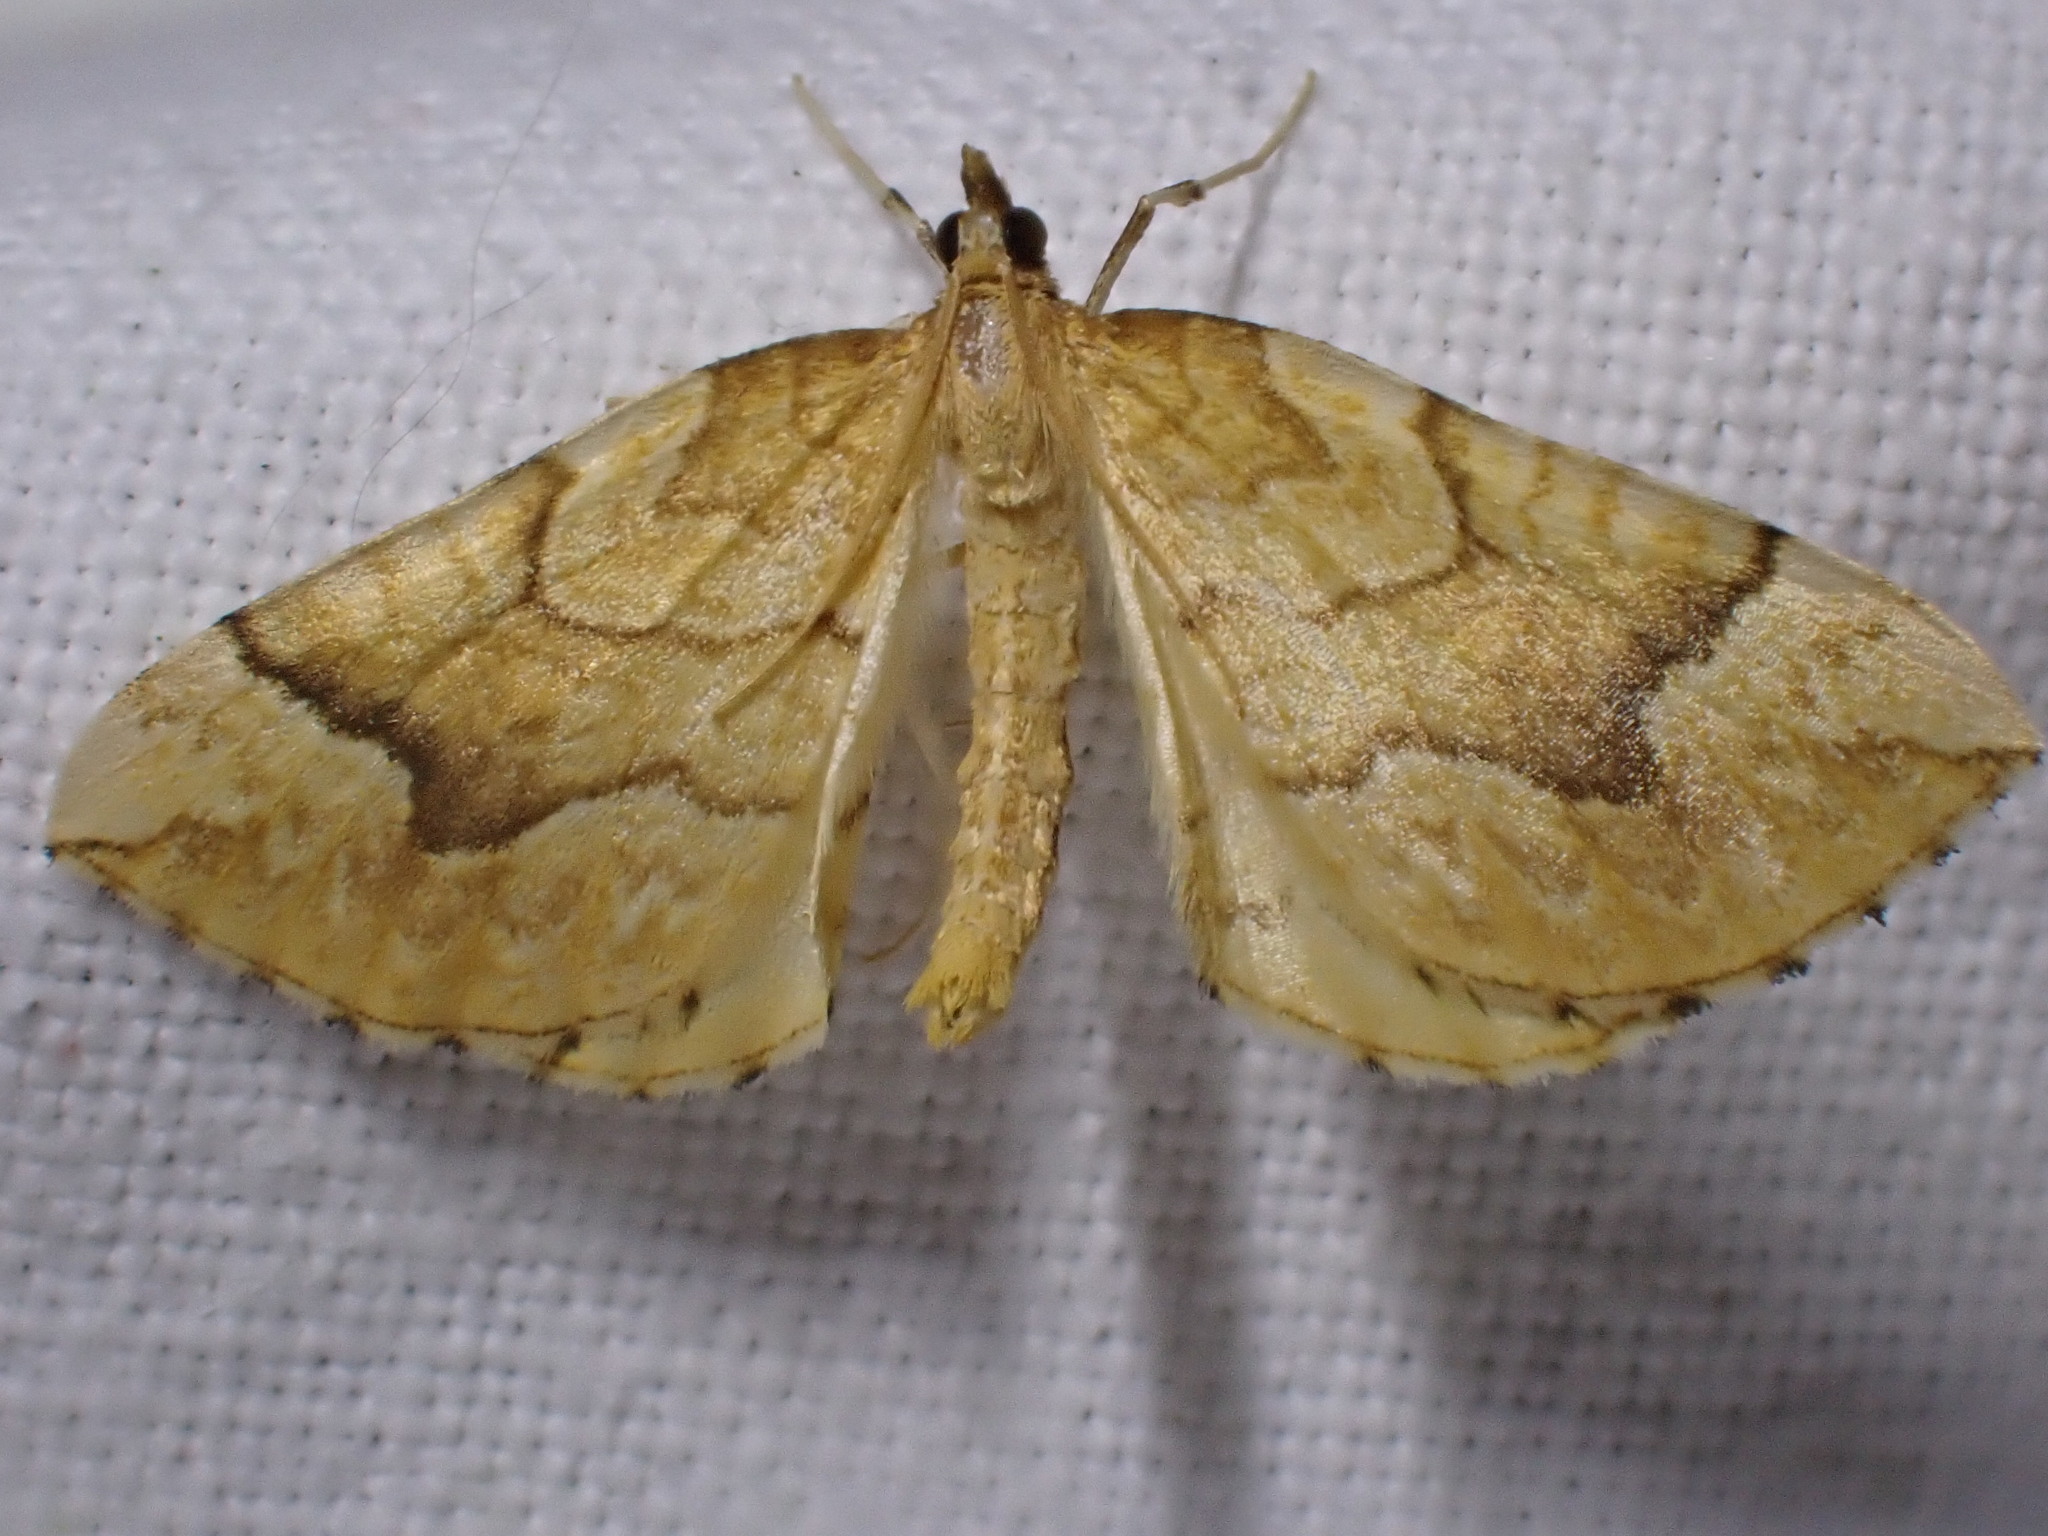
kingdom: Animalia
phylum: Arthropoda
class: Insecta
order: Lepidoptera
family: Geometridae
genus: Eulithis
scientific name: Eulithis mellinata
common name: Spinach
